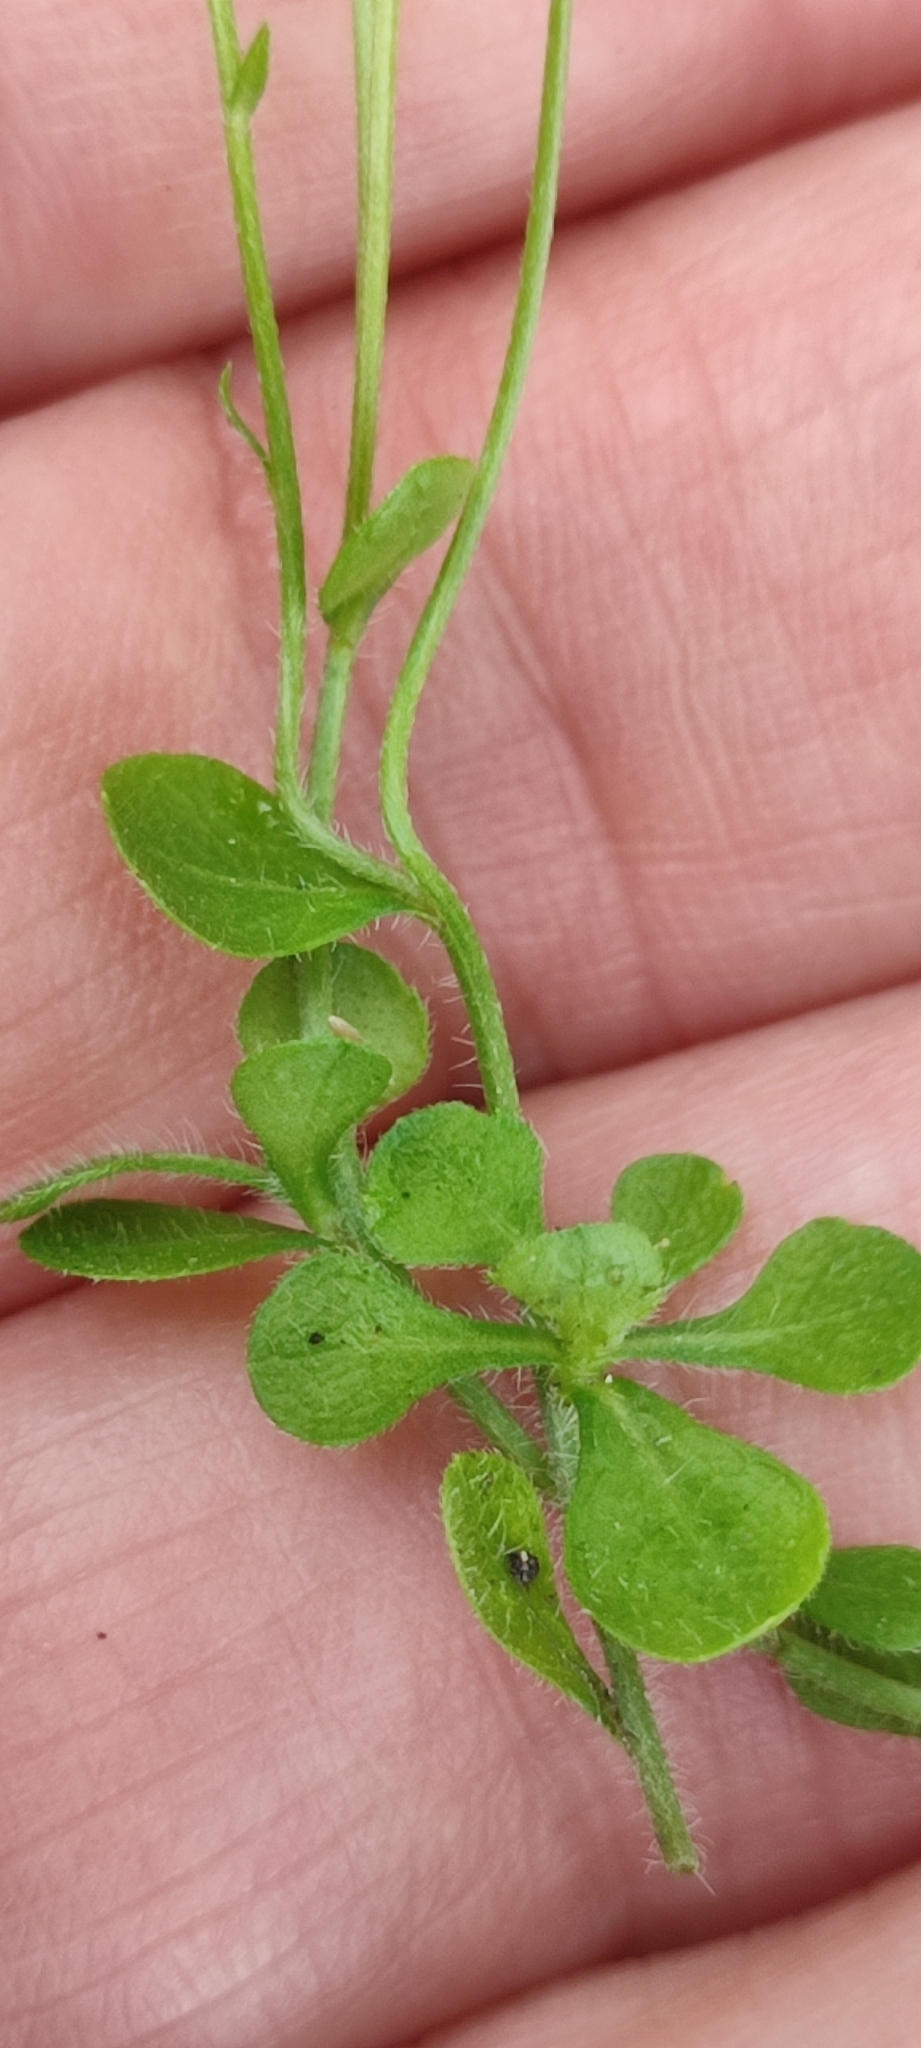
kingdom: Plantae
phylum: Tracheophyta
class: Magnoliopsida
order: Asterales
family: Asteraceae
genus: Erigeron
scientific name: Erigeron bellioides
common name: Bellorita
